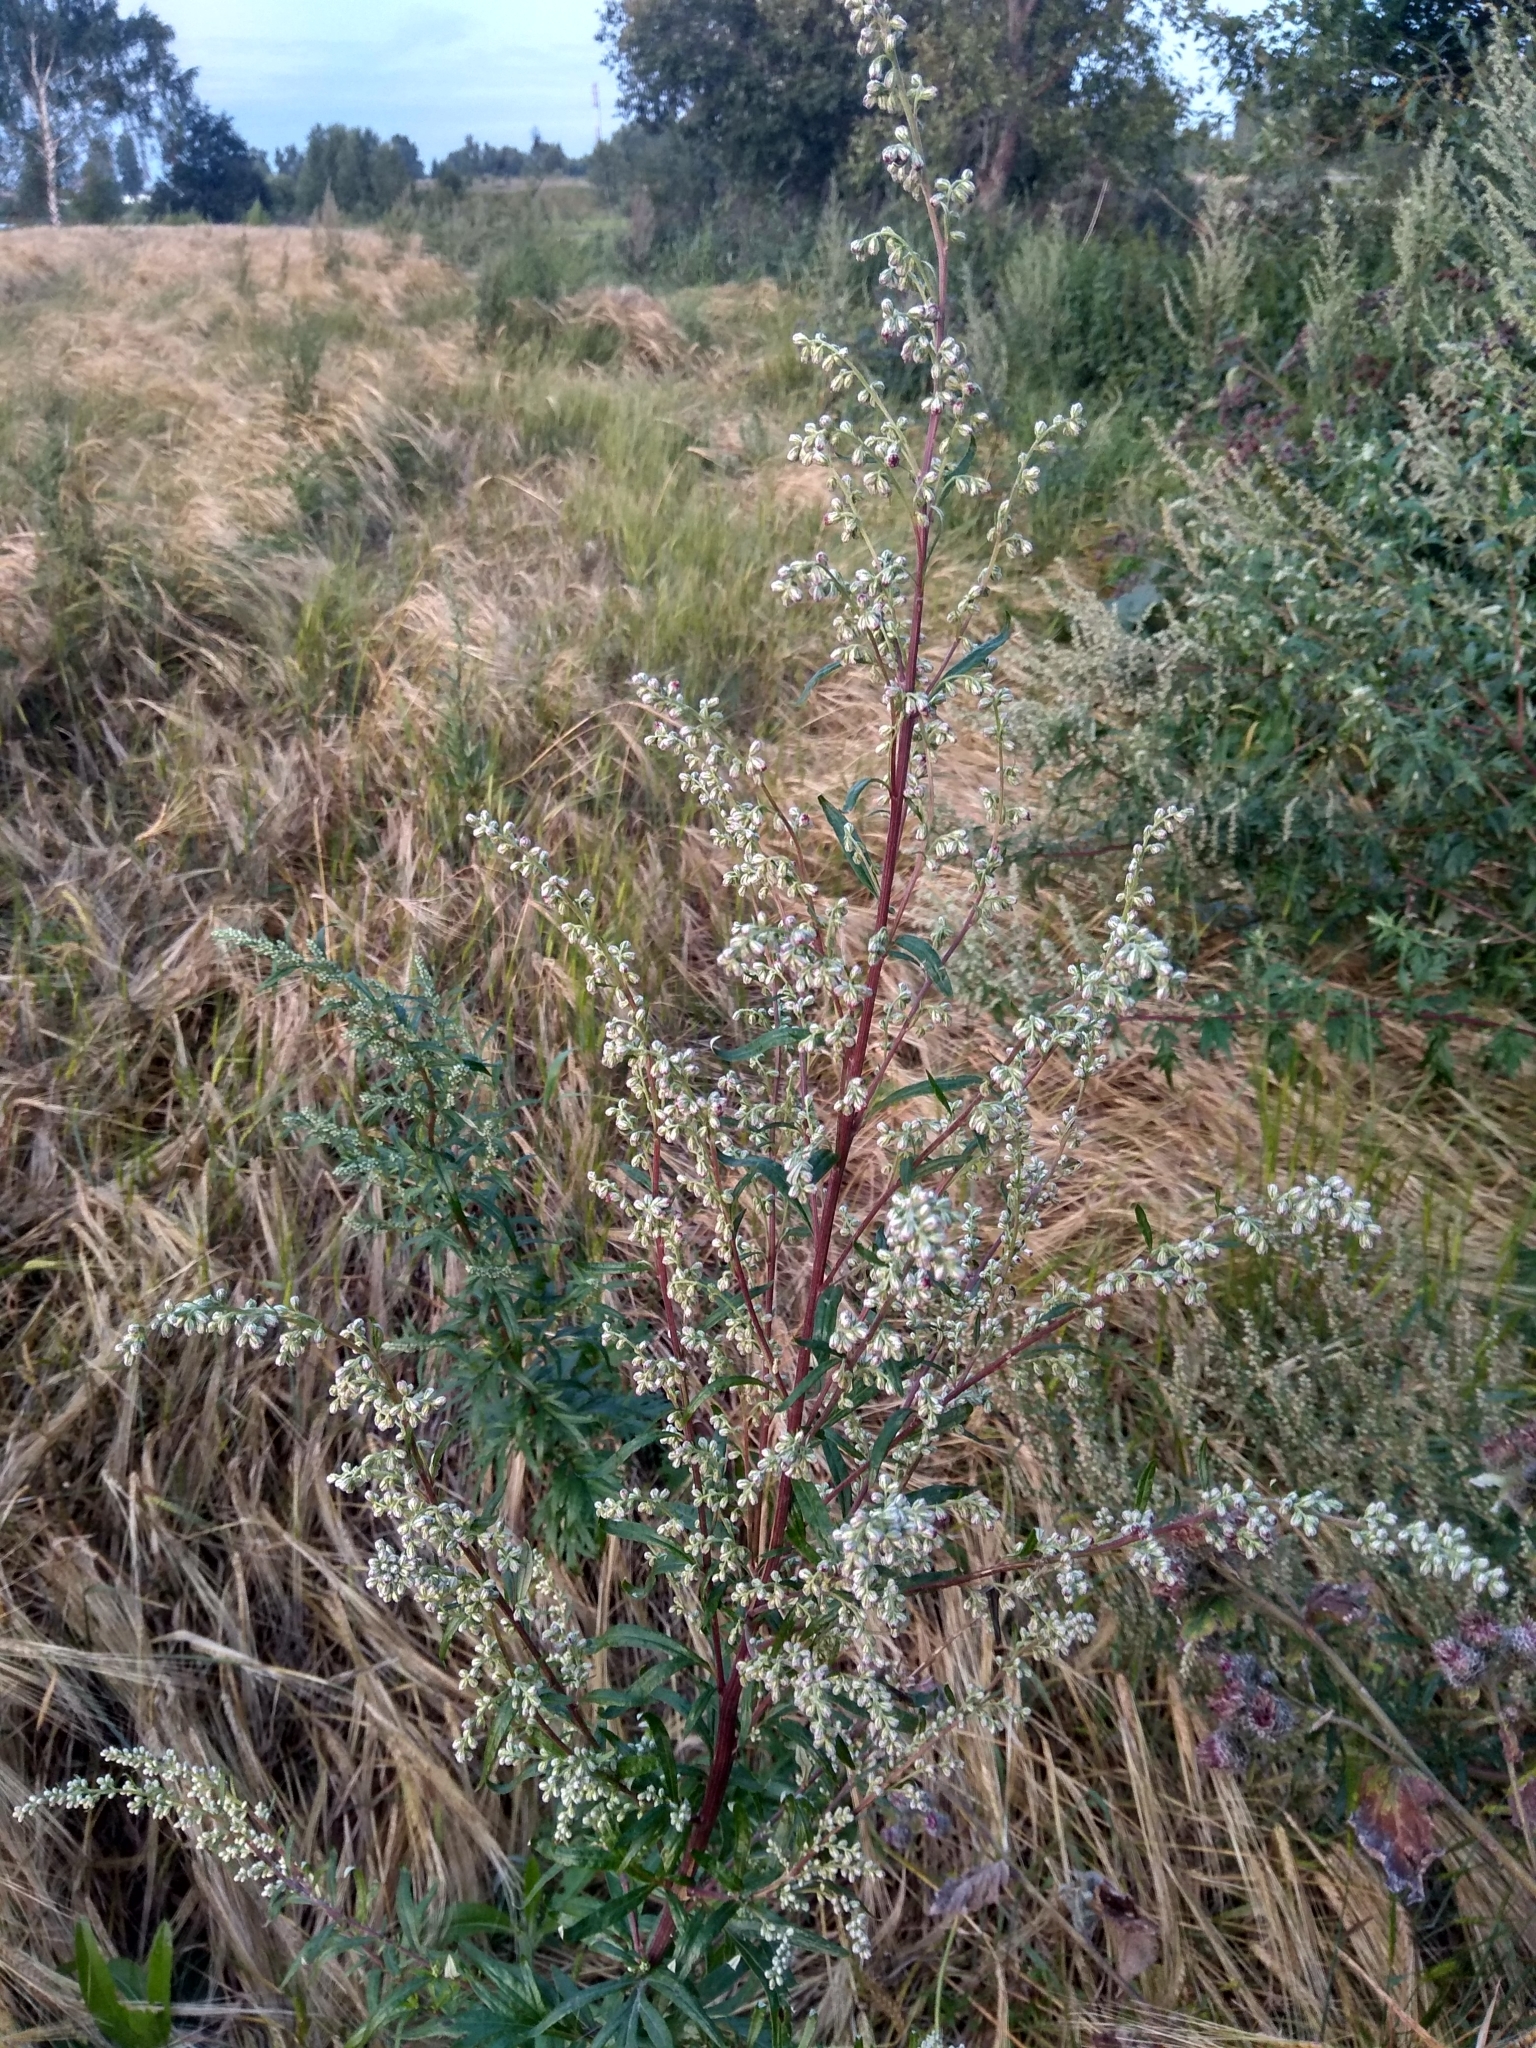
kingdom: Plantae
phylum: Tracheophyta
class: Magnoliopsida
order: Asterales
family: Asteraceae
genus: Artemisia
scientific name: Artemisia vulgaris
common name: Mugwort
